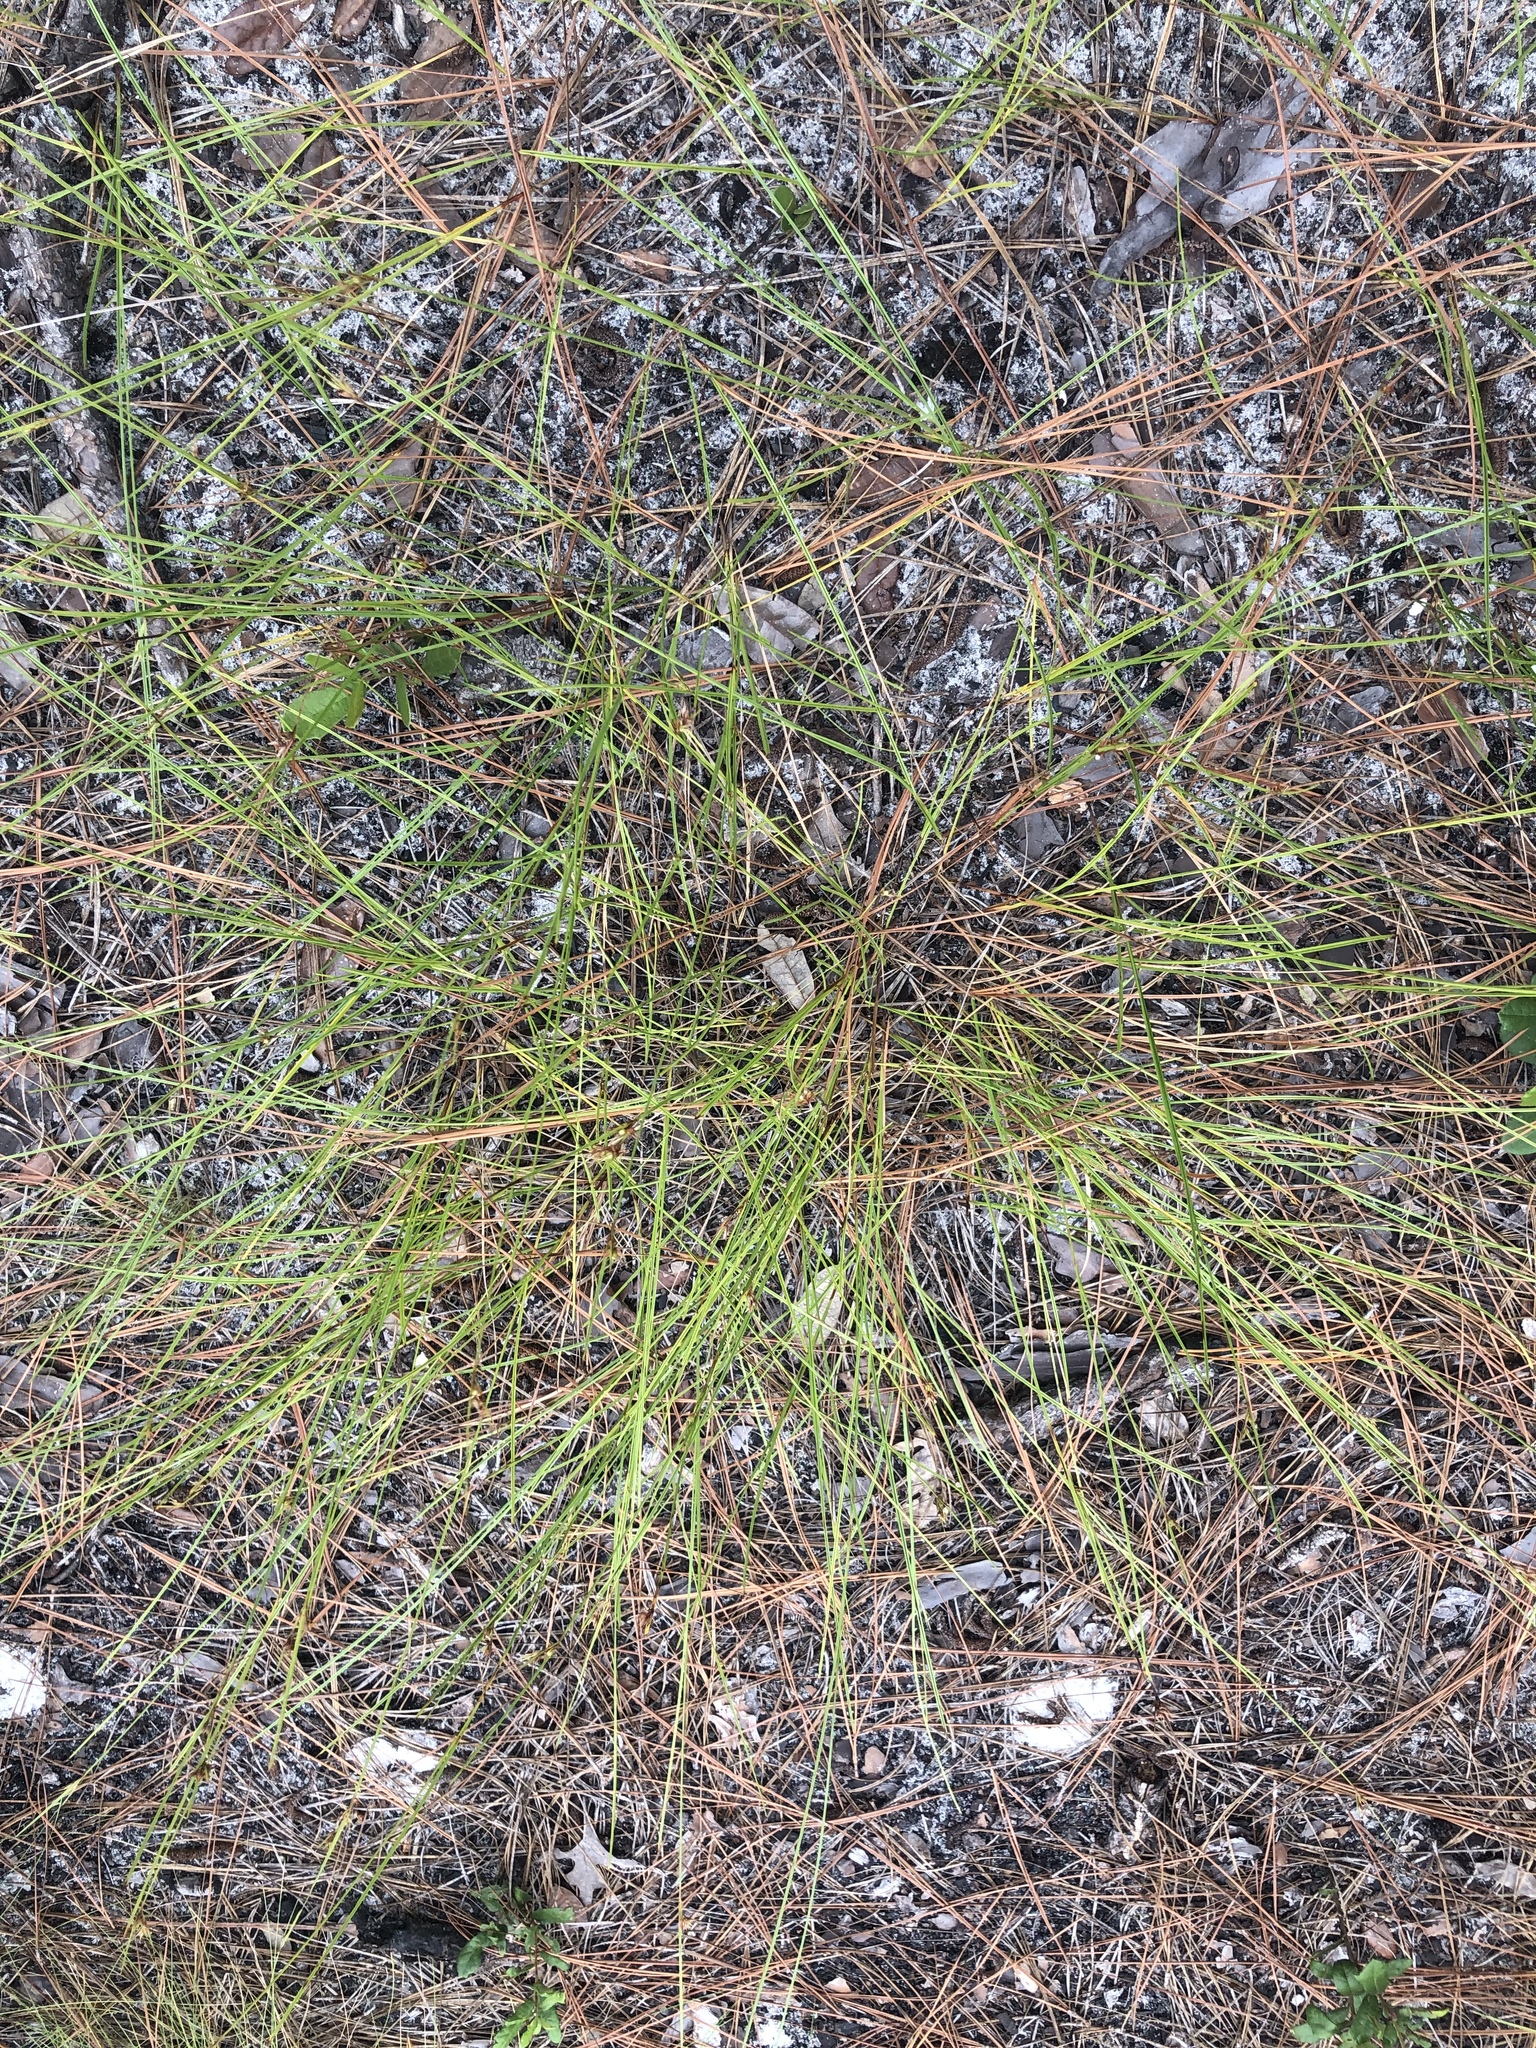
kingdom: Plantae
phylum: Tracheophyta
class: Liliopsida
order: Poales
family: Cyperaceae
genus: Scleria
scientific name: Scleria ciliata
